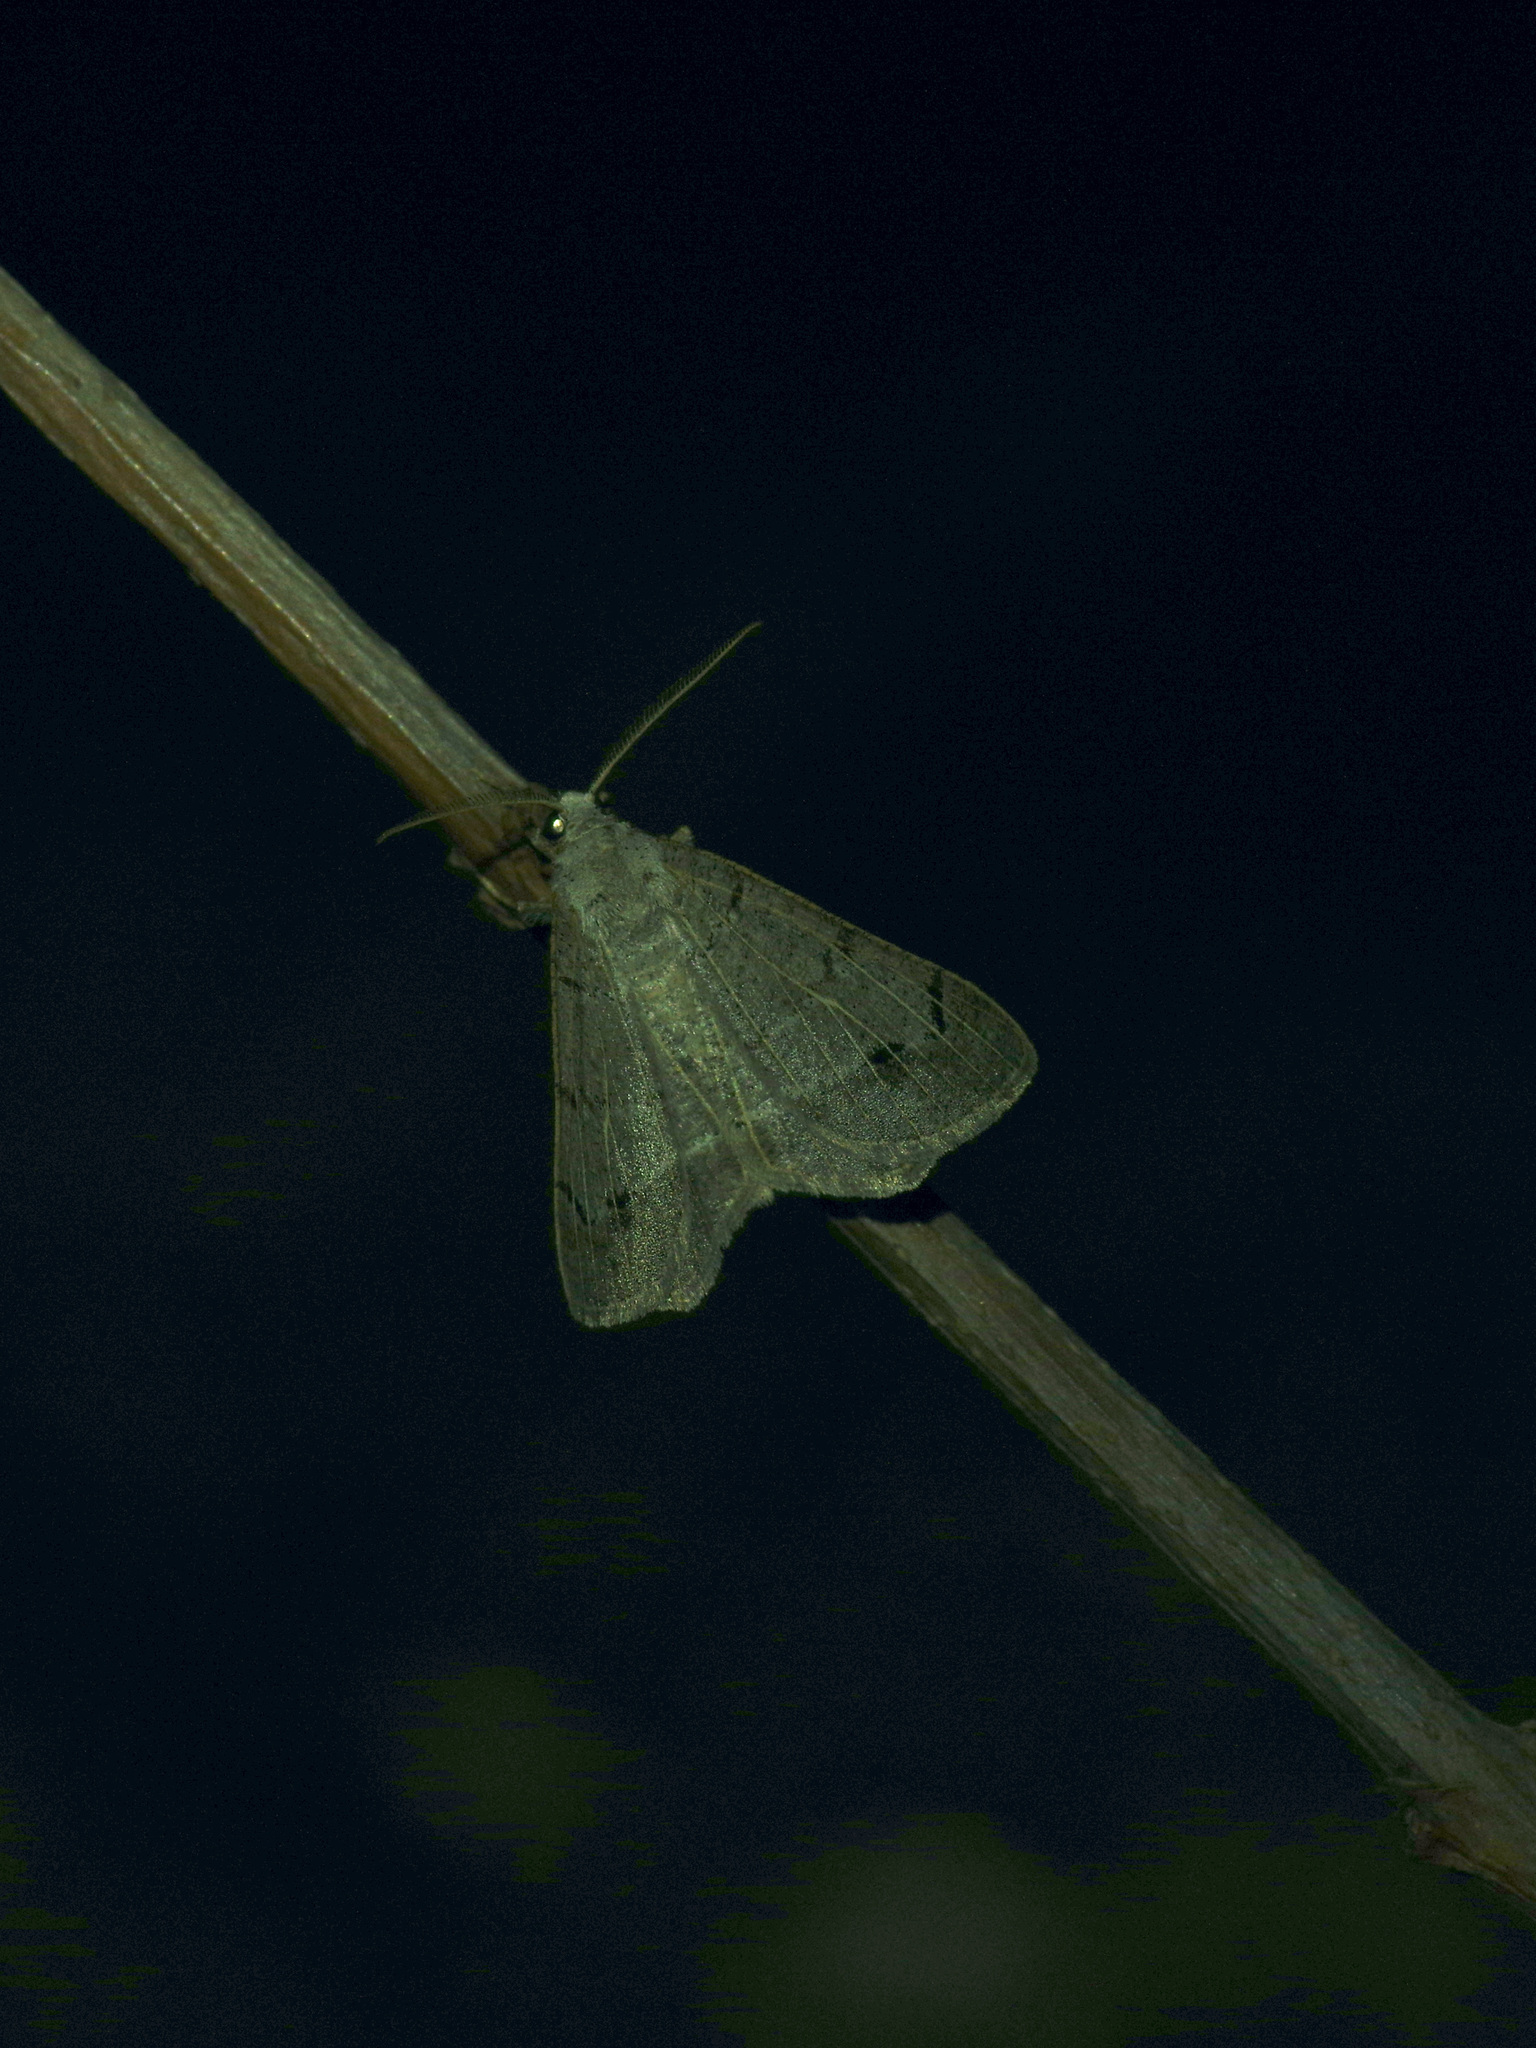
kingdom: Animalia
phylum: Arthropoda
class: Insecta
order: Lepidoptera
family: Geometridae
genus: Isturgia
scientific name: Isturgia dislocaria
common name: Pale-viened enconista
